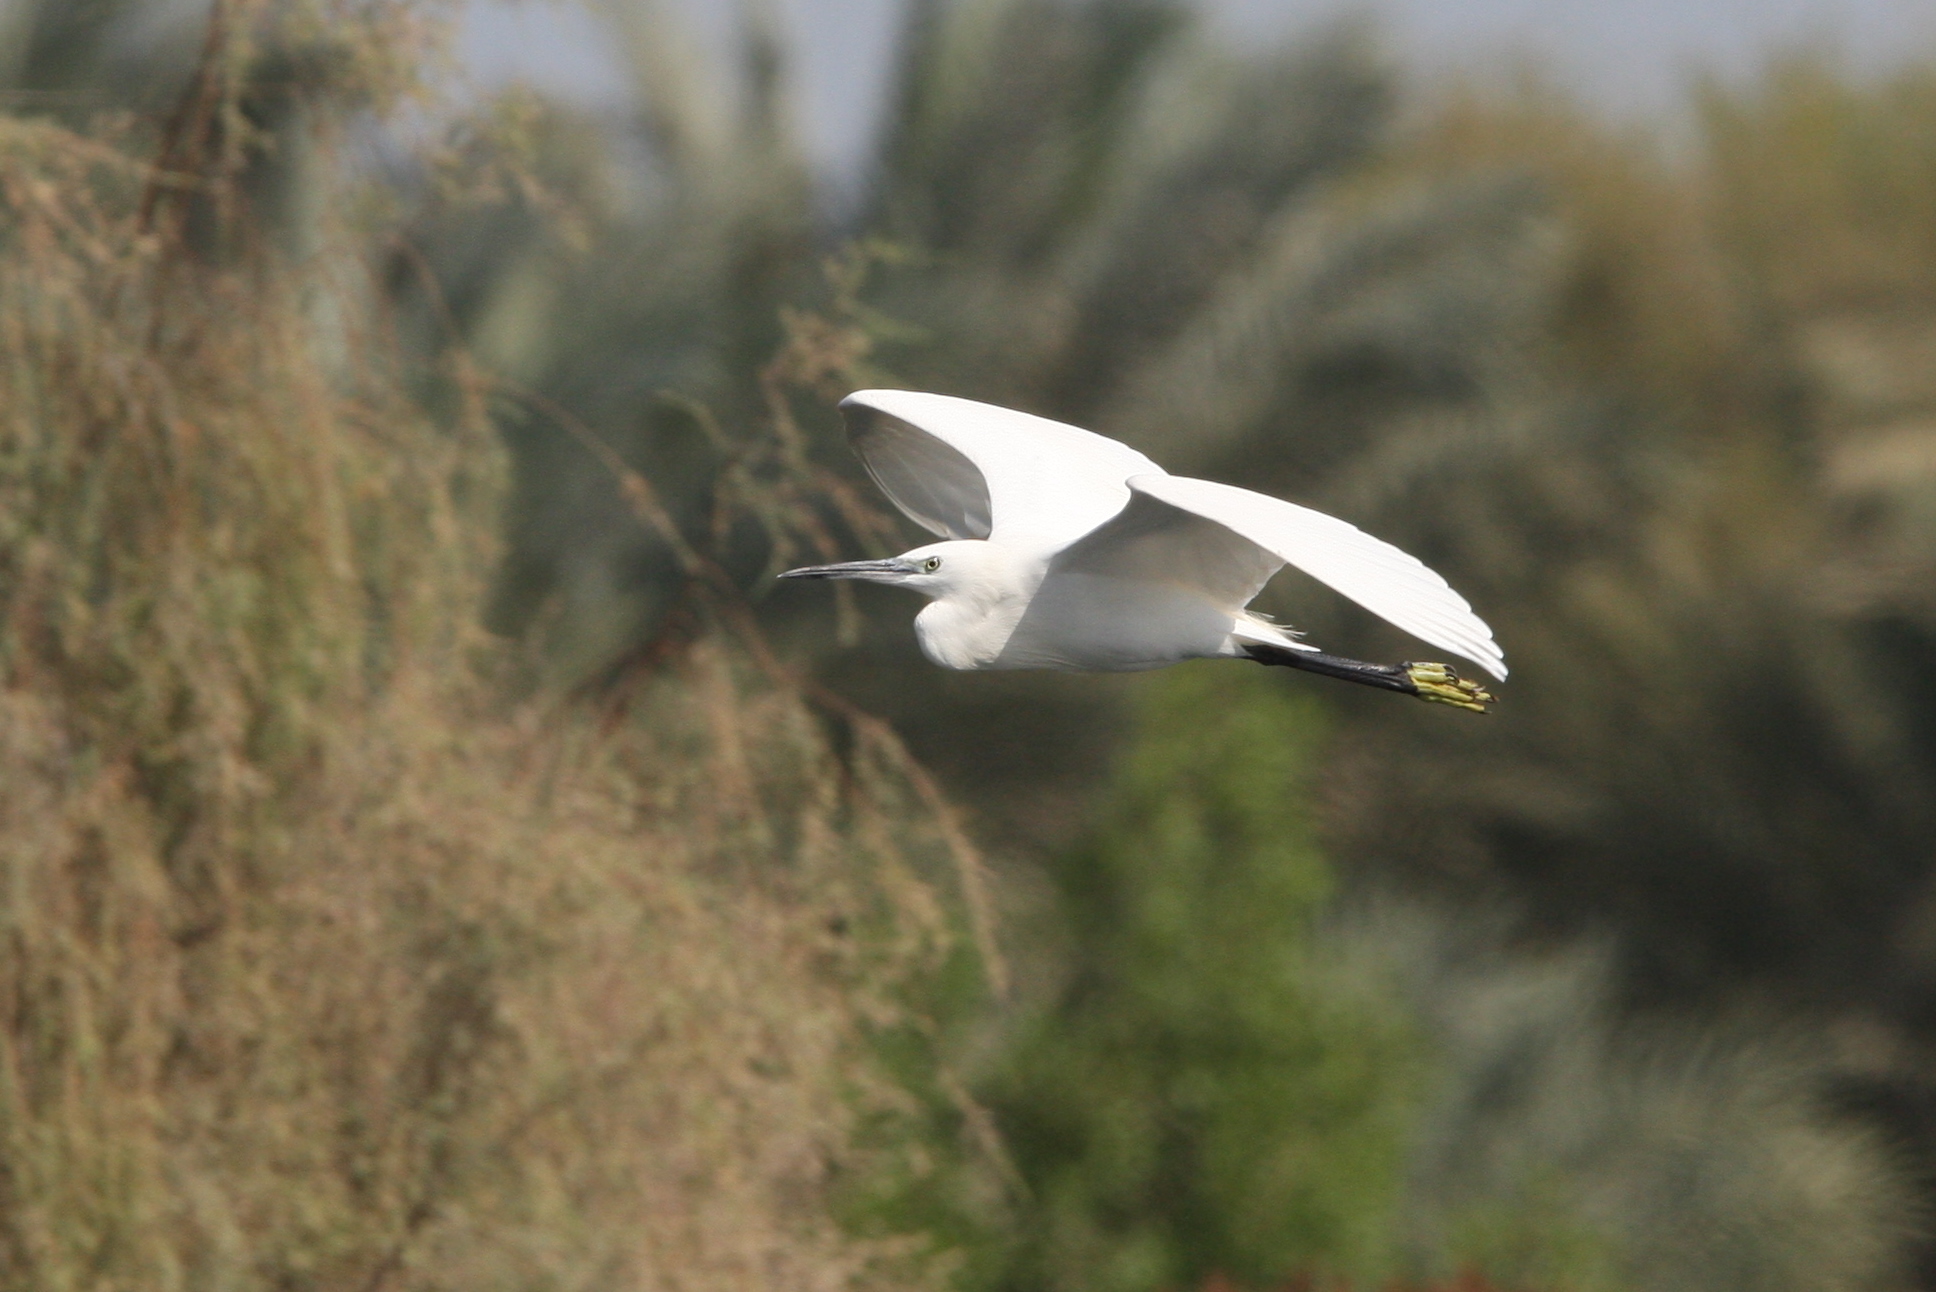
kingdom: Animalia
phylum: Chordata
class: Aves
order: Pelecaniformes
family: Ardeidae
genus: Egretta
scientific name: Egretta garzetta
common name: Little egret
